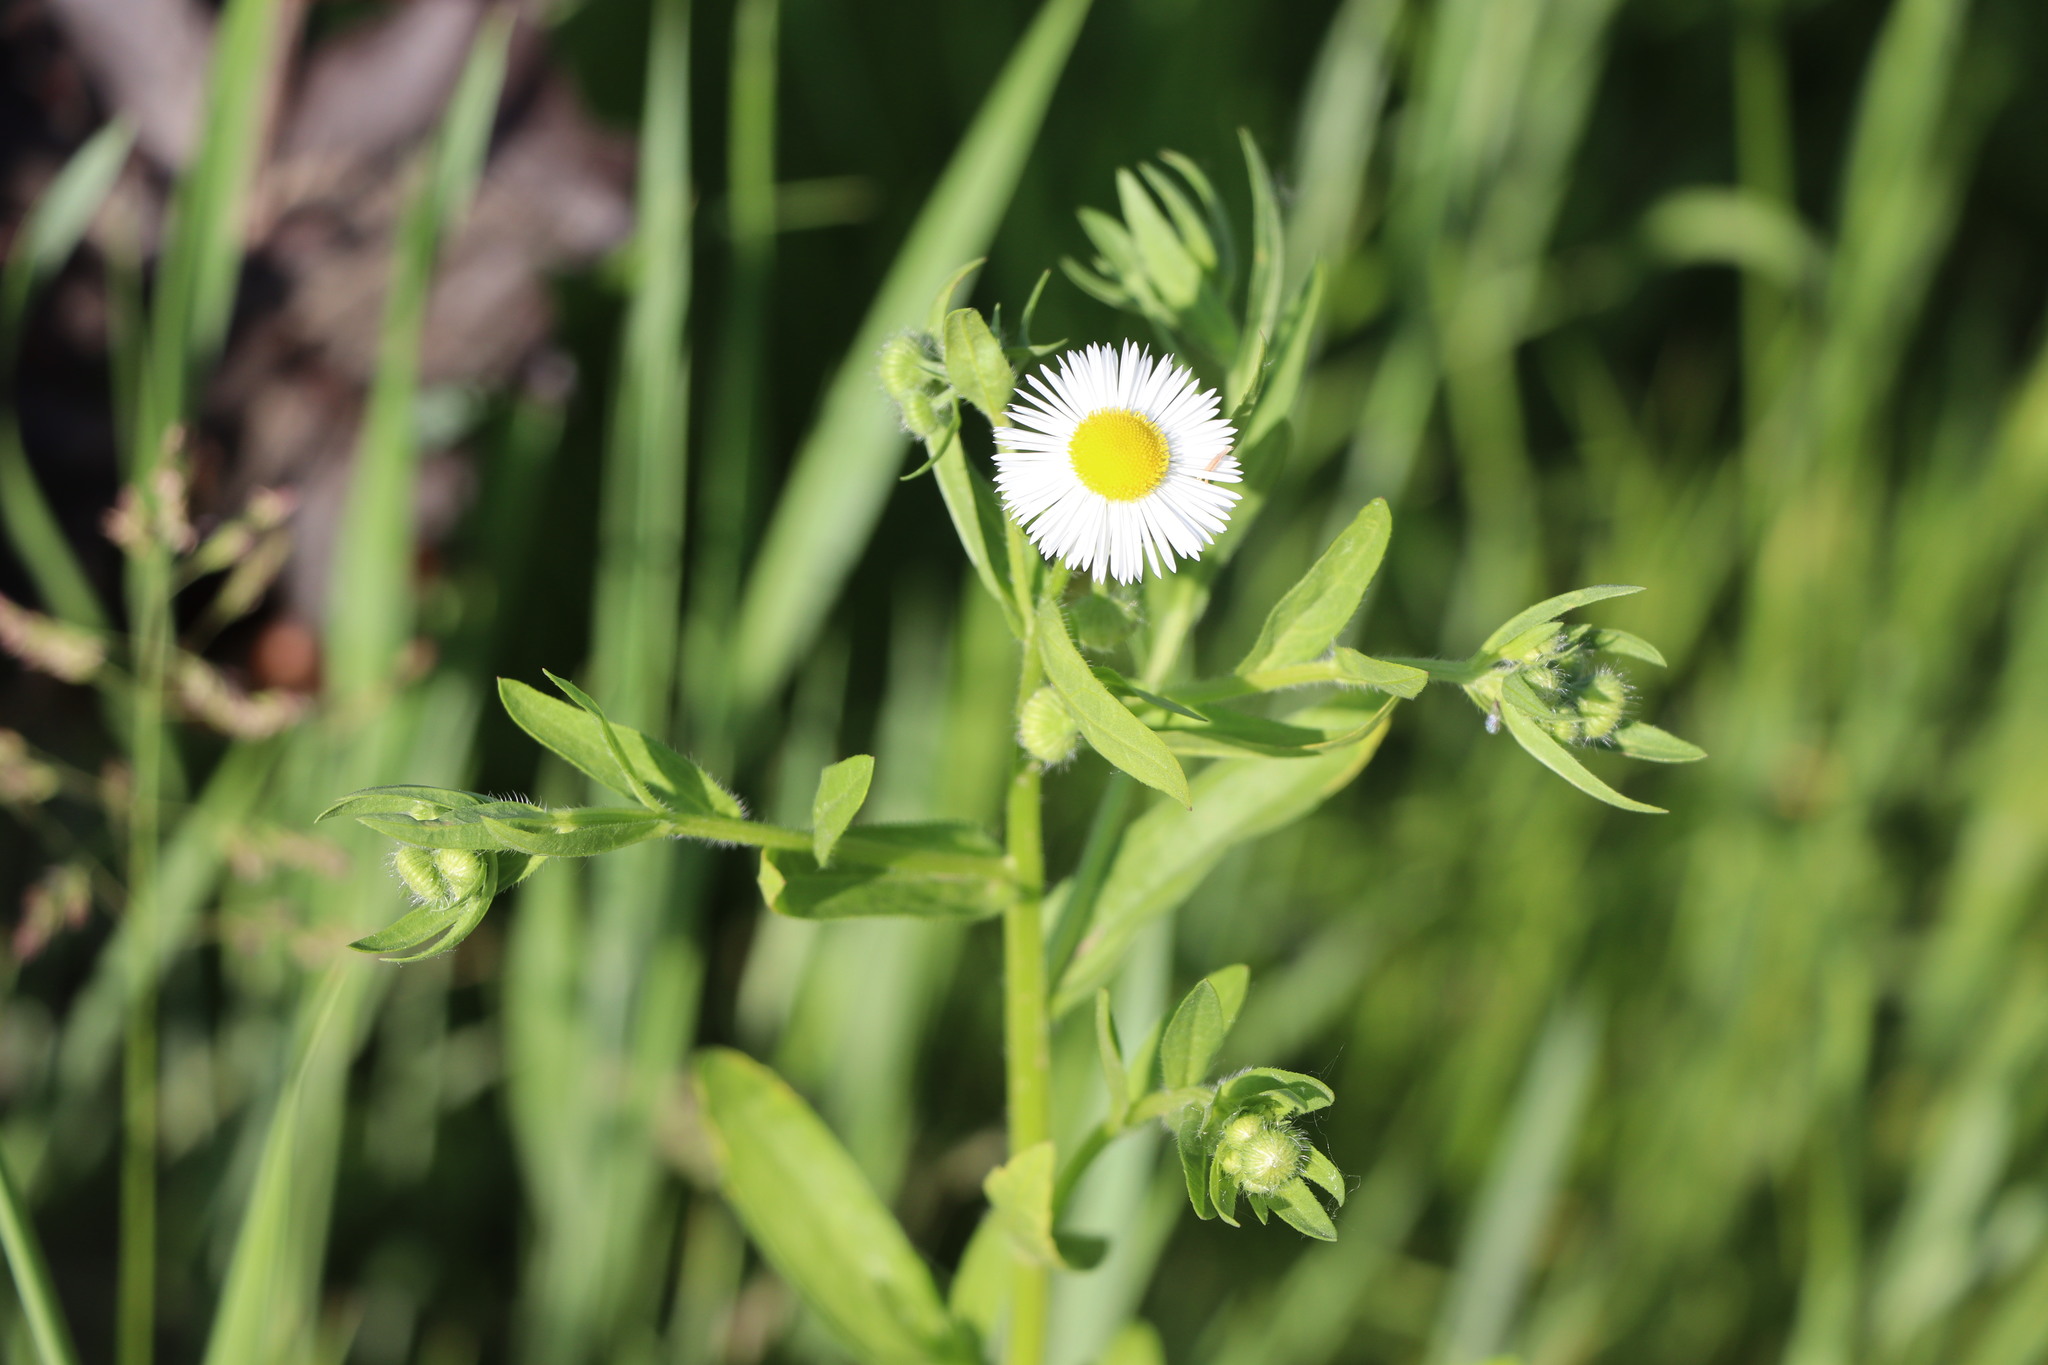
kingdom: Plantae
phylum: Tracheophyta
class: Magnoliopsida
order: Asterales
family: Asteraceae
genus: Erigeron
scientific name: Erigeron annuus
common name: Tall fleabane
